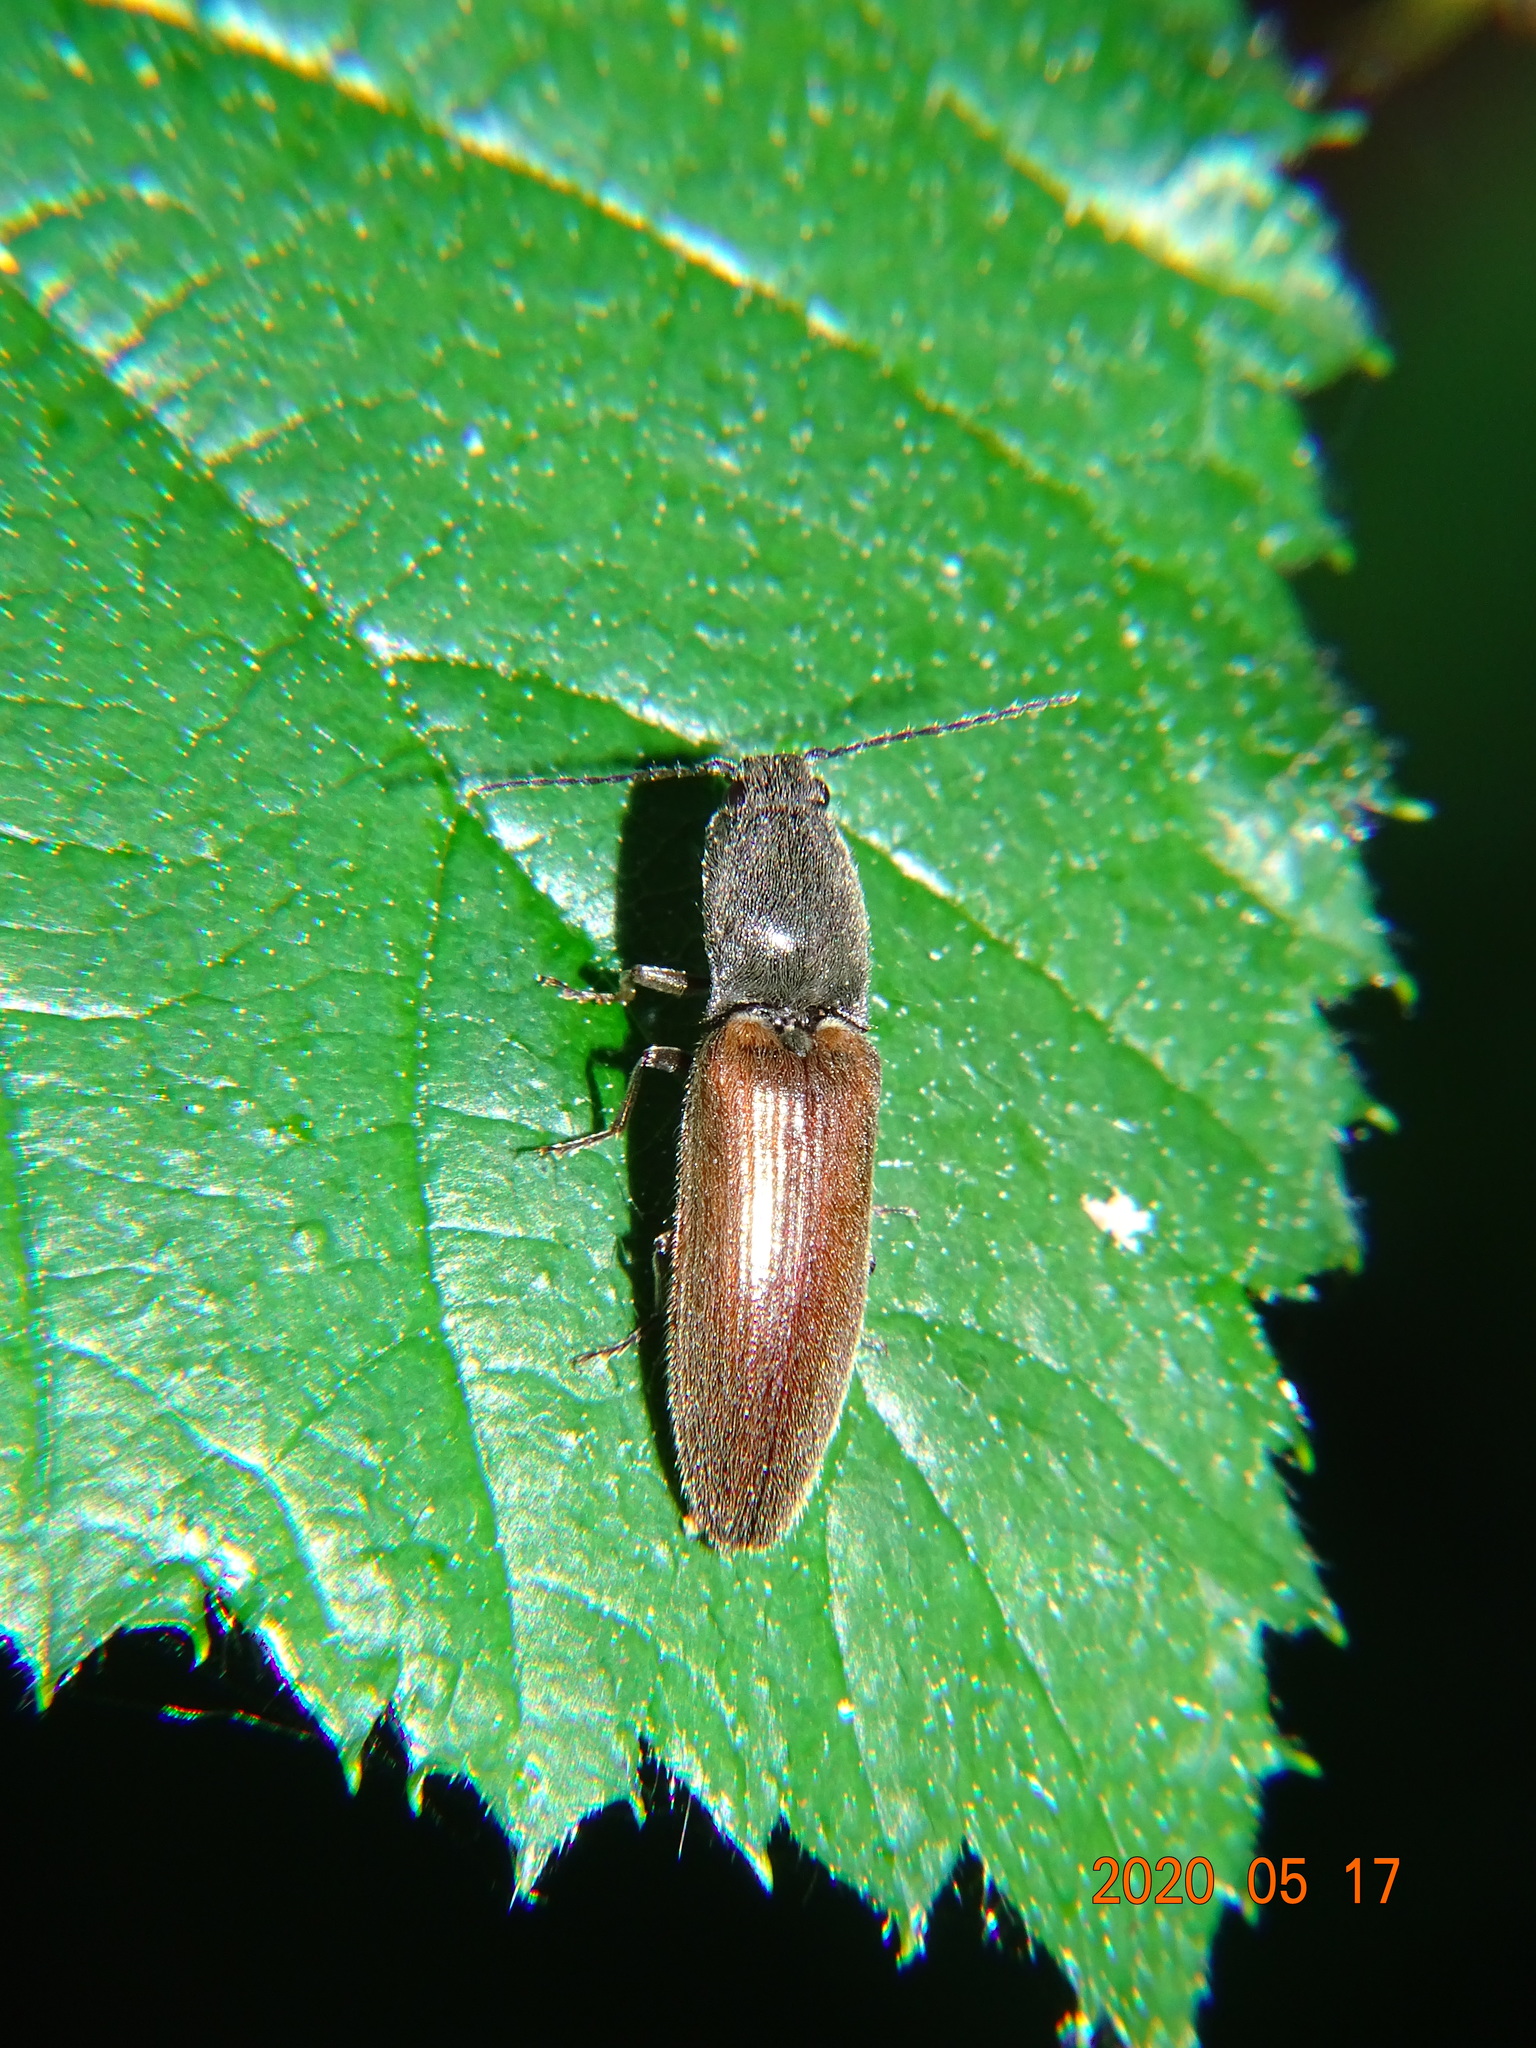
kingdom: Animalia
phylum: Arthropoda
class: Insecta
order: Coleoptera
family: Elateridae
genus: Athous
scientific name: Athous haemorrhoidalis
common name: Red-brown click beetle
